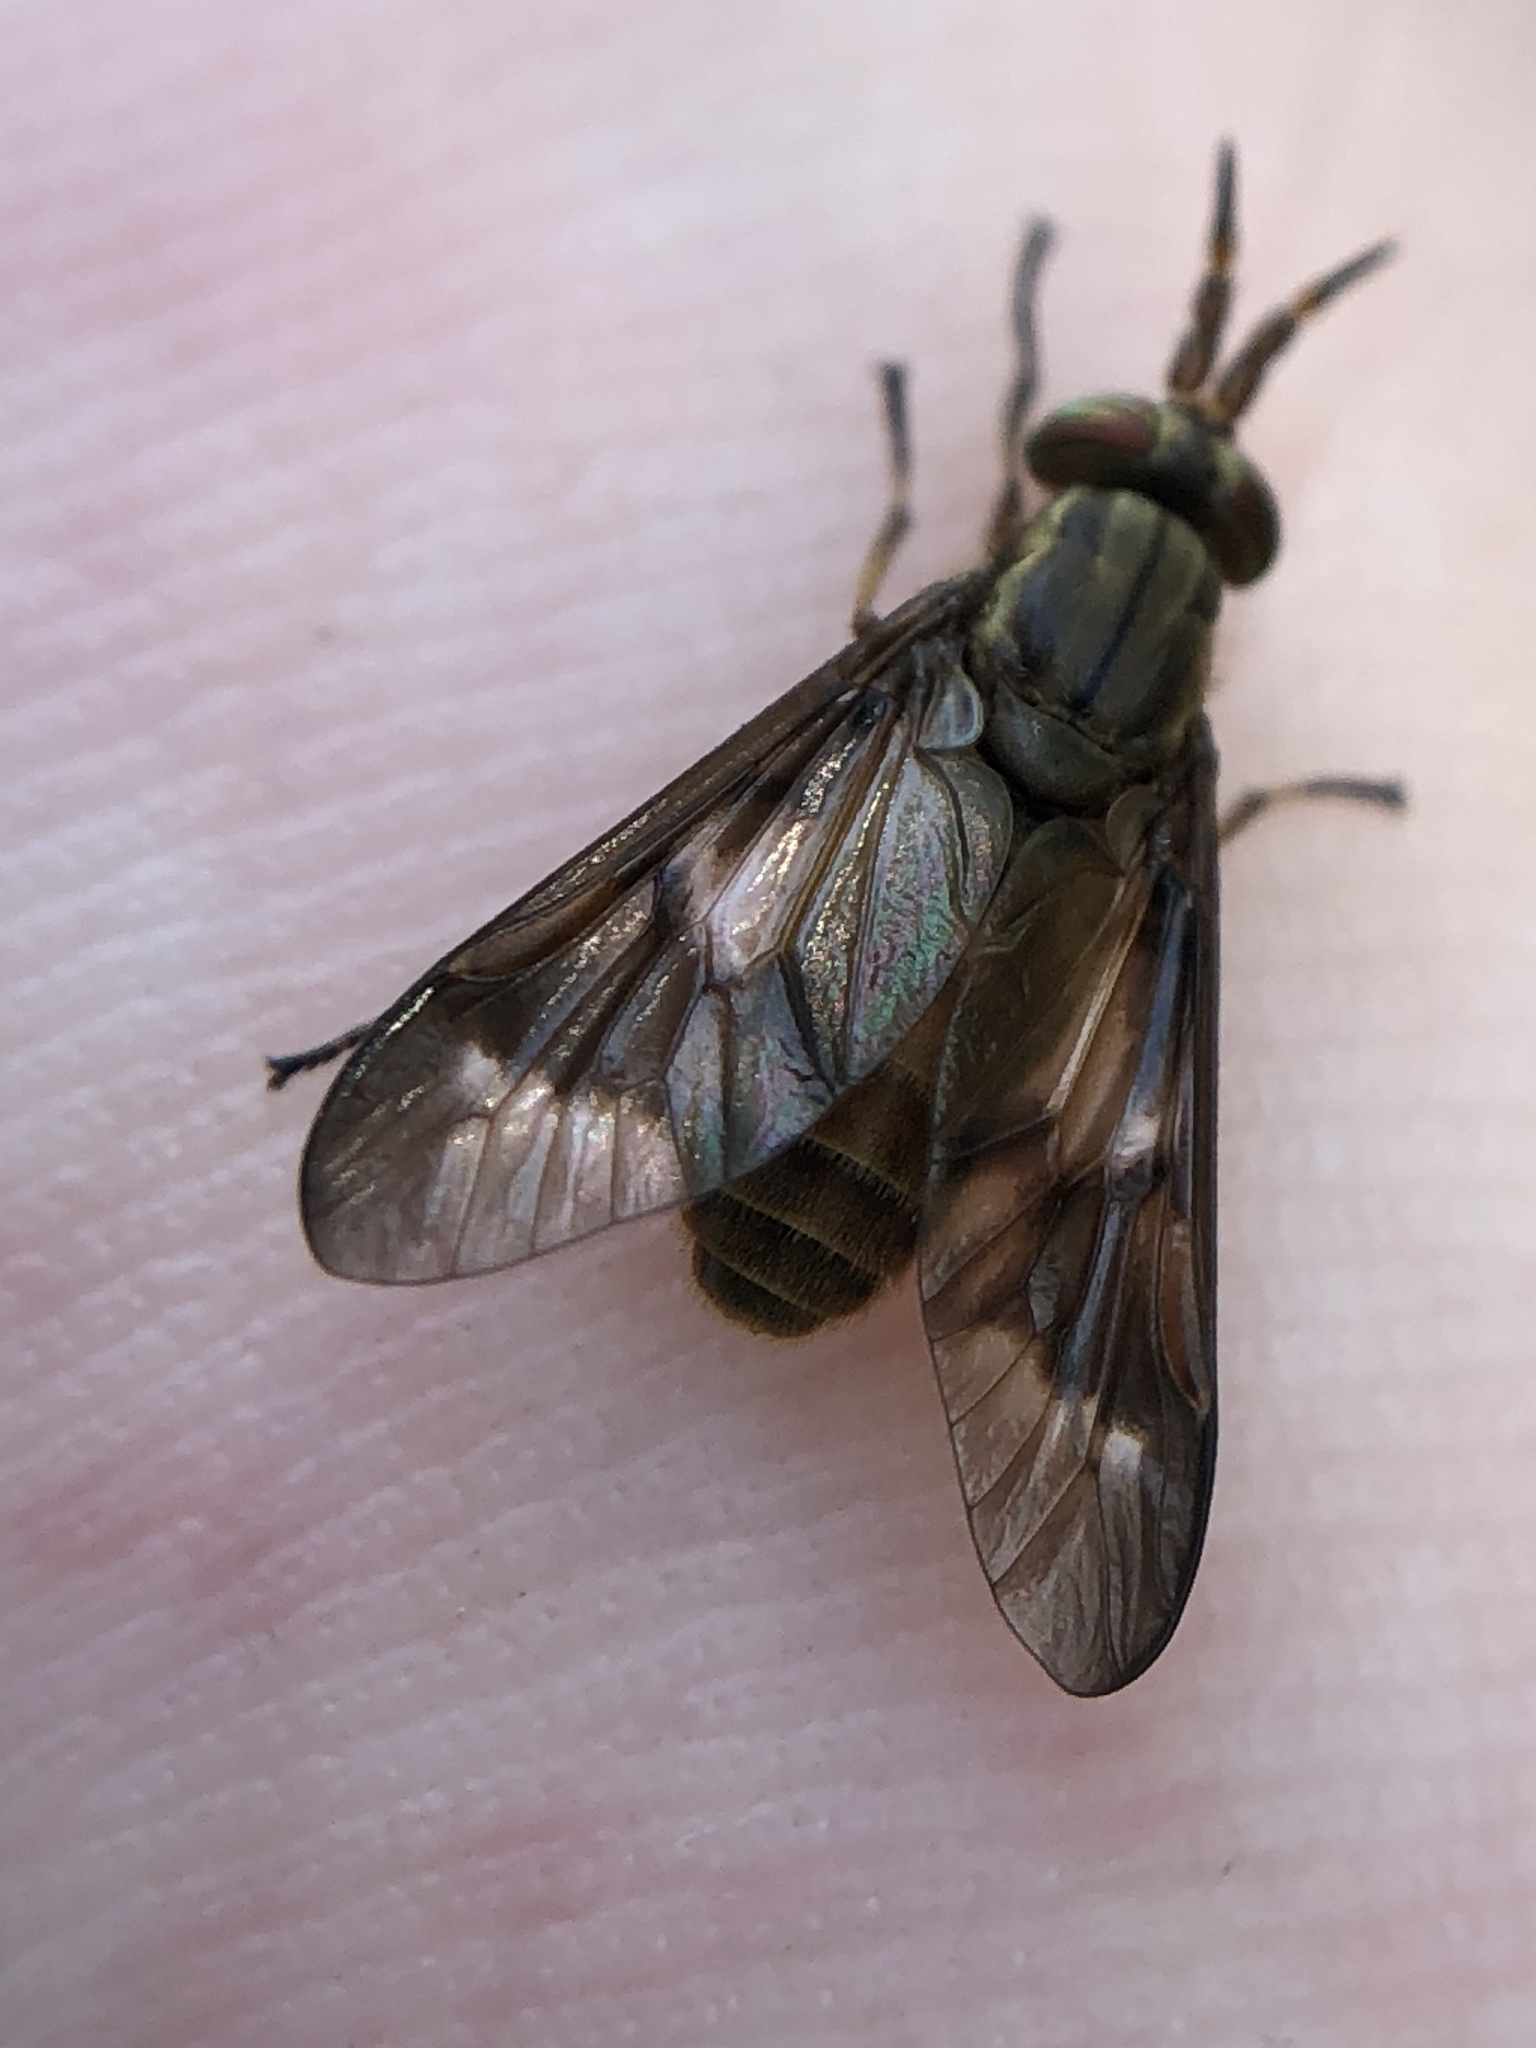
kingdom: Animalia
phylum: Arthropoda
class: Insecta
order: Diptera
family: Tabanidae
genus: Chrysops
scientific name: Chrysops brunneus
